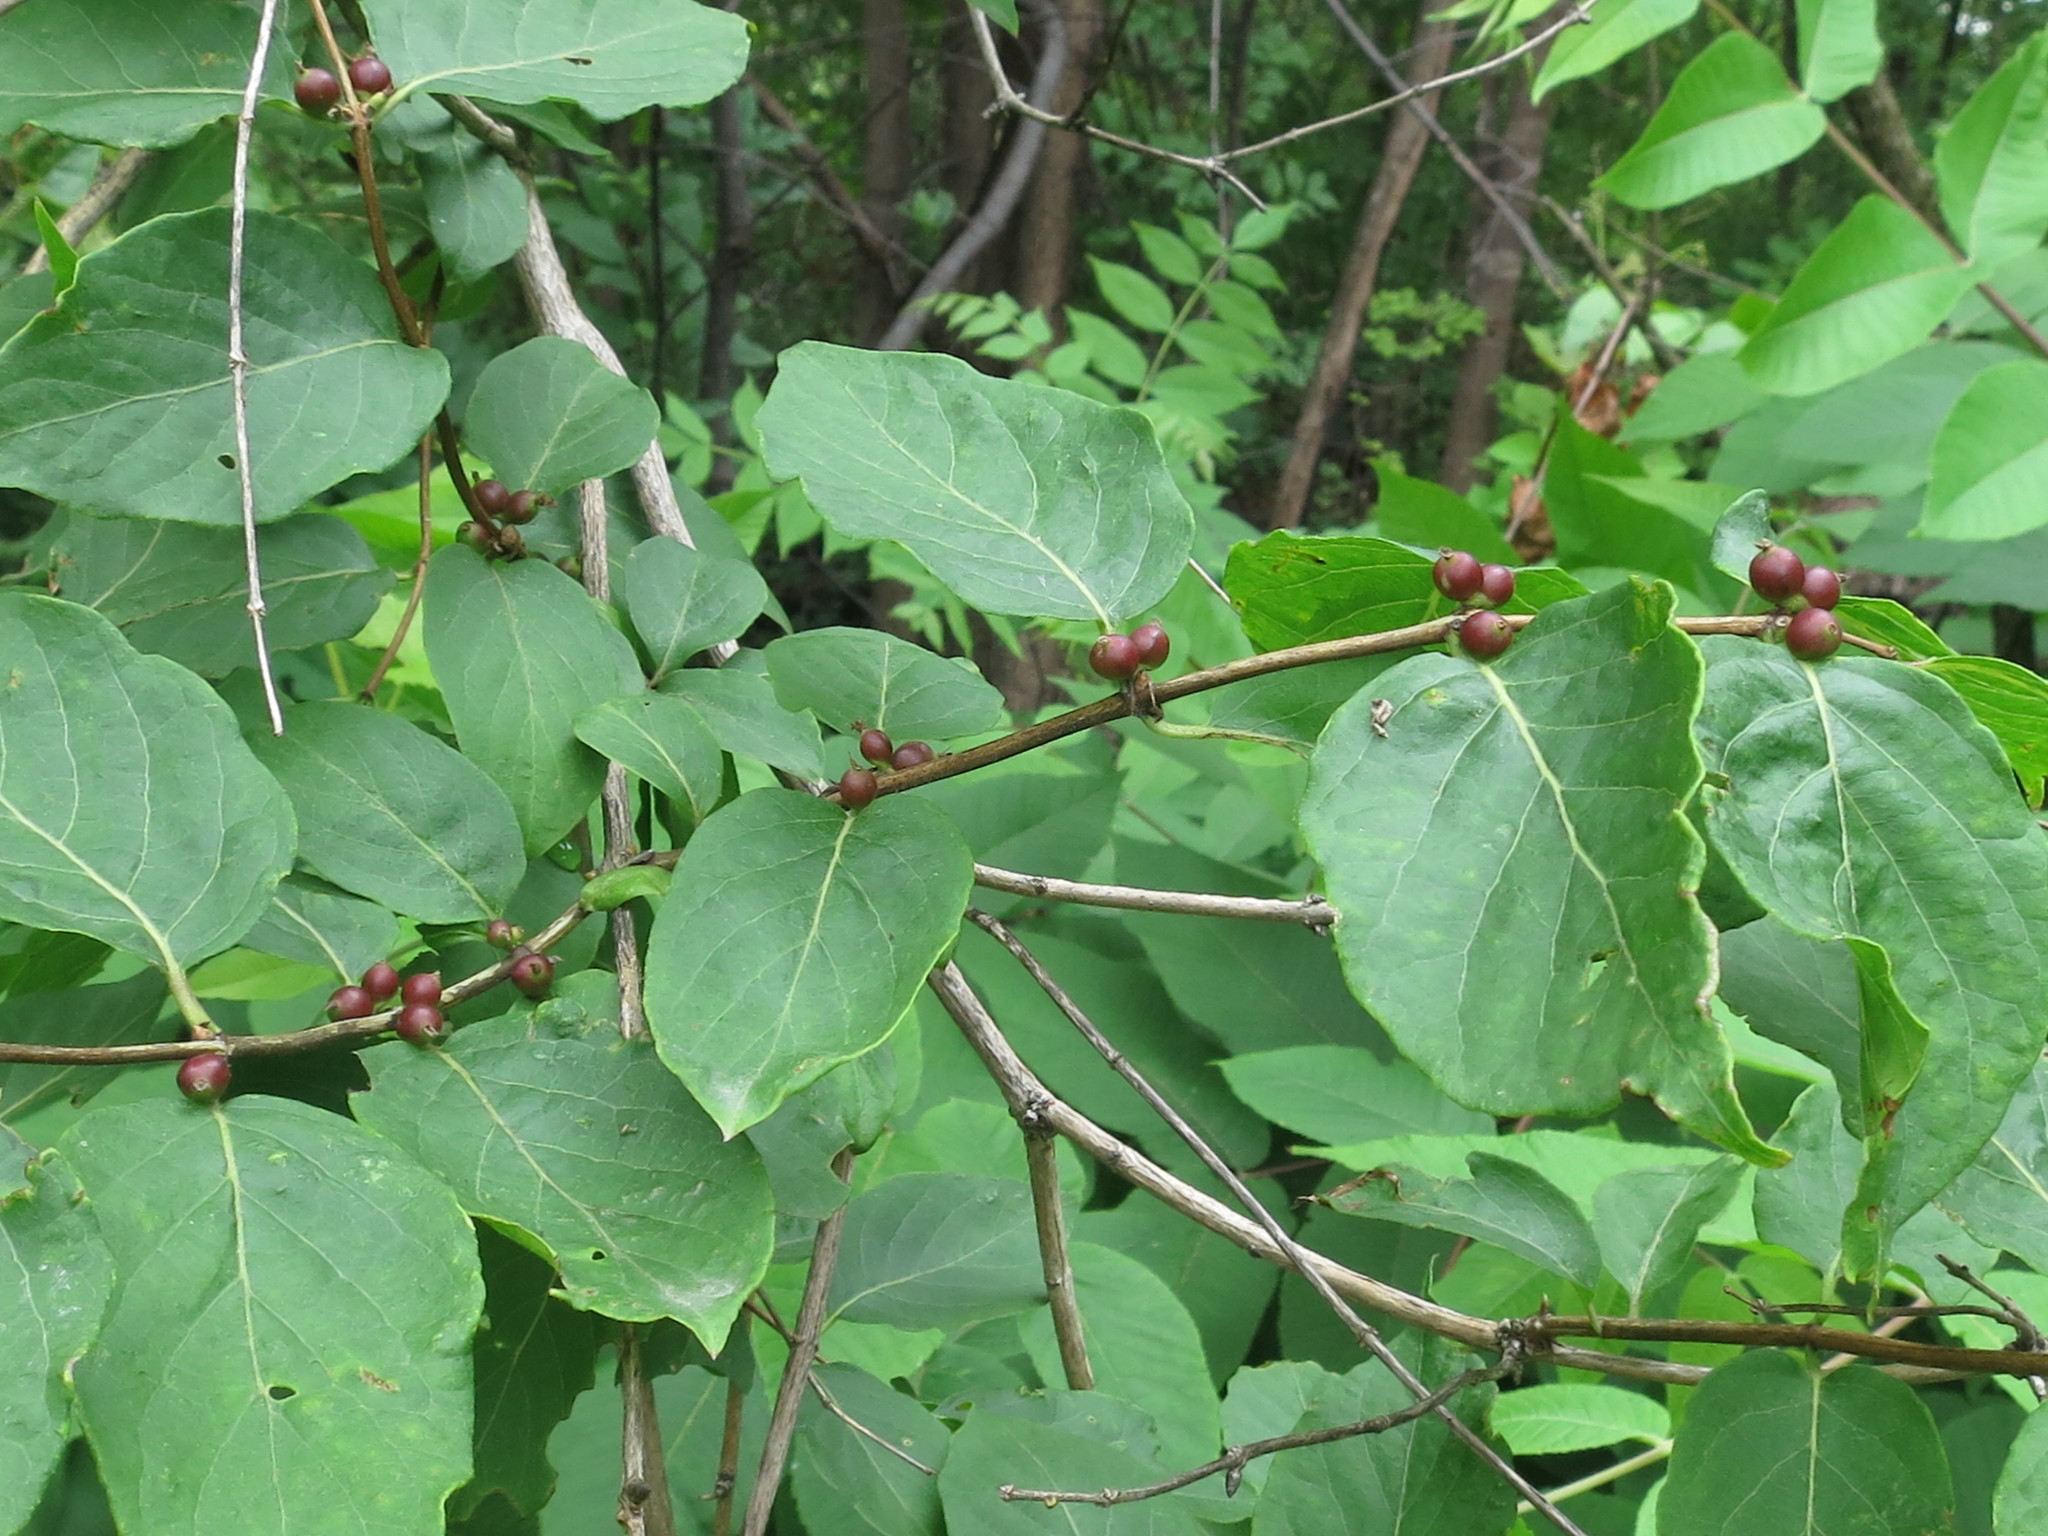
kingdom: Plantae
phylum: Tracheophyta
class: Magnoliopsida
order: Dipsacales
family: Caprifoliaceae
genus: Lonicera
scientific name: Lonicera maackii
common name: Amur honeysuckle
